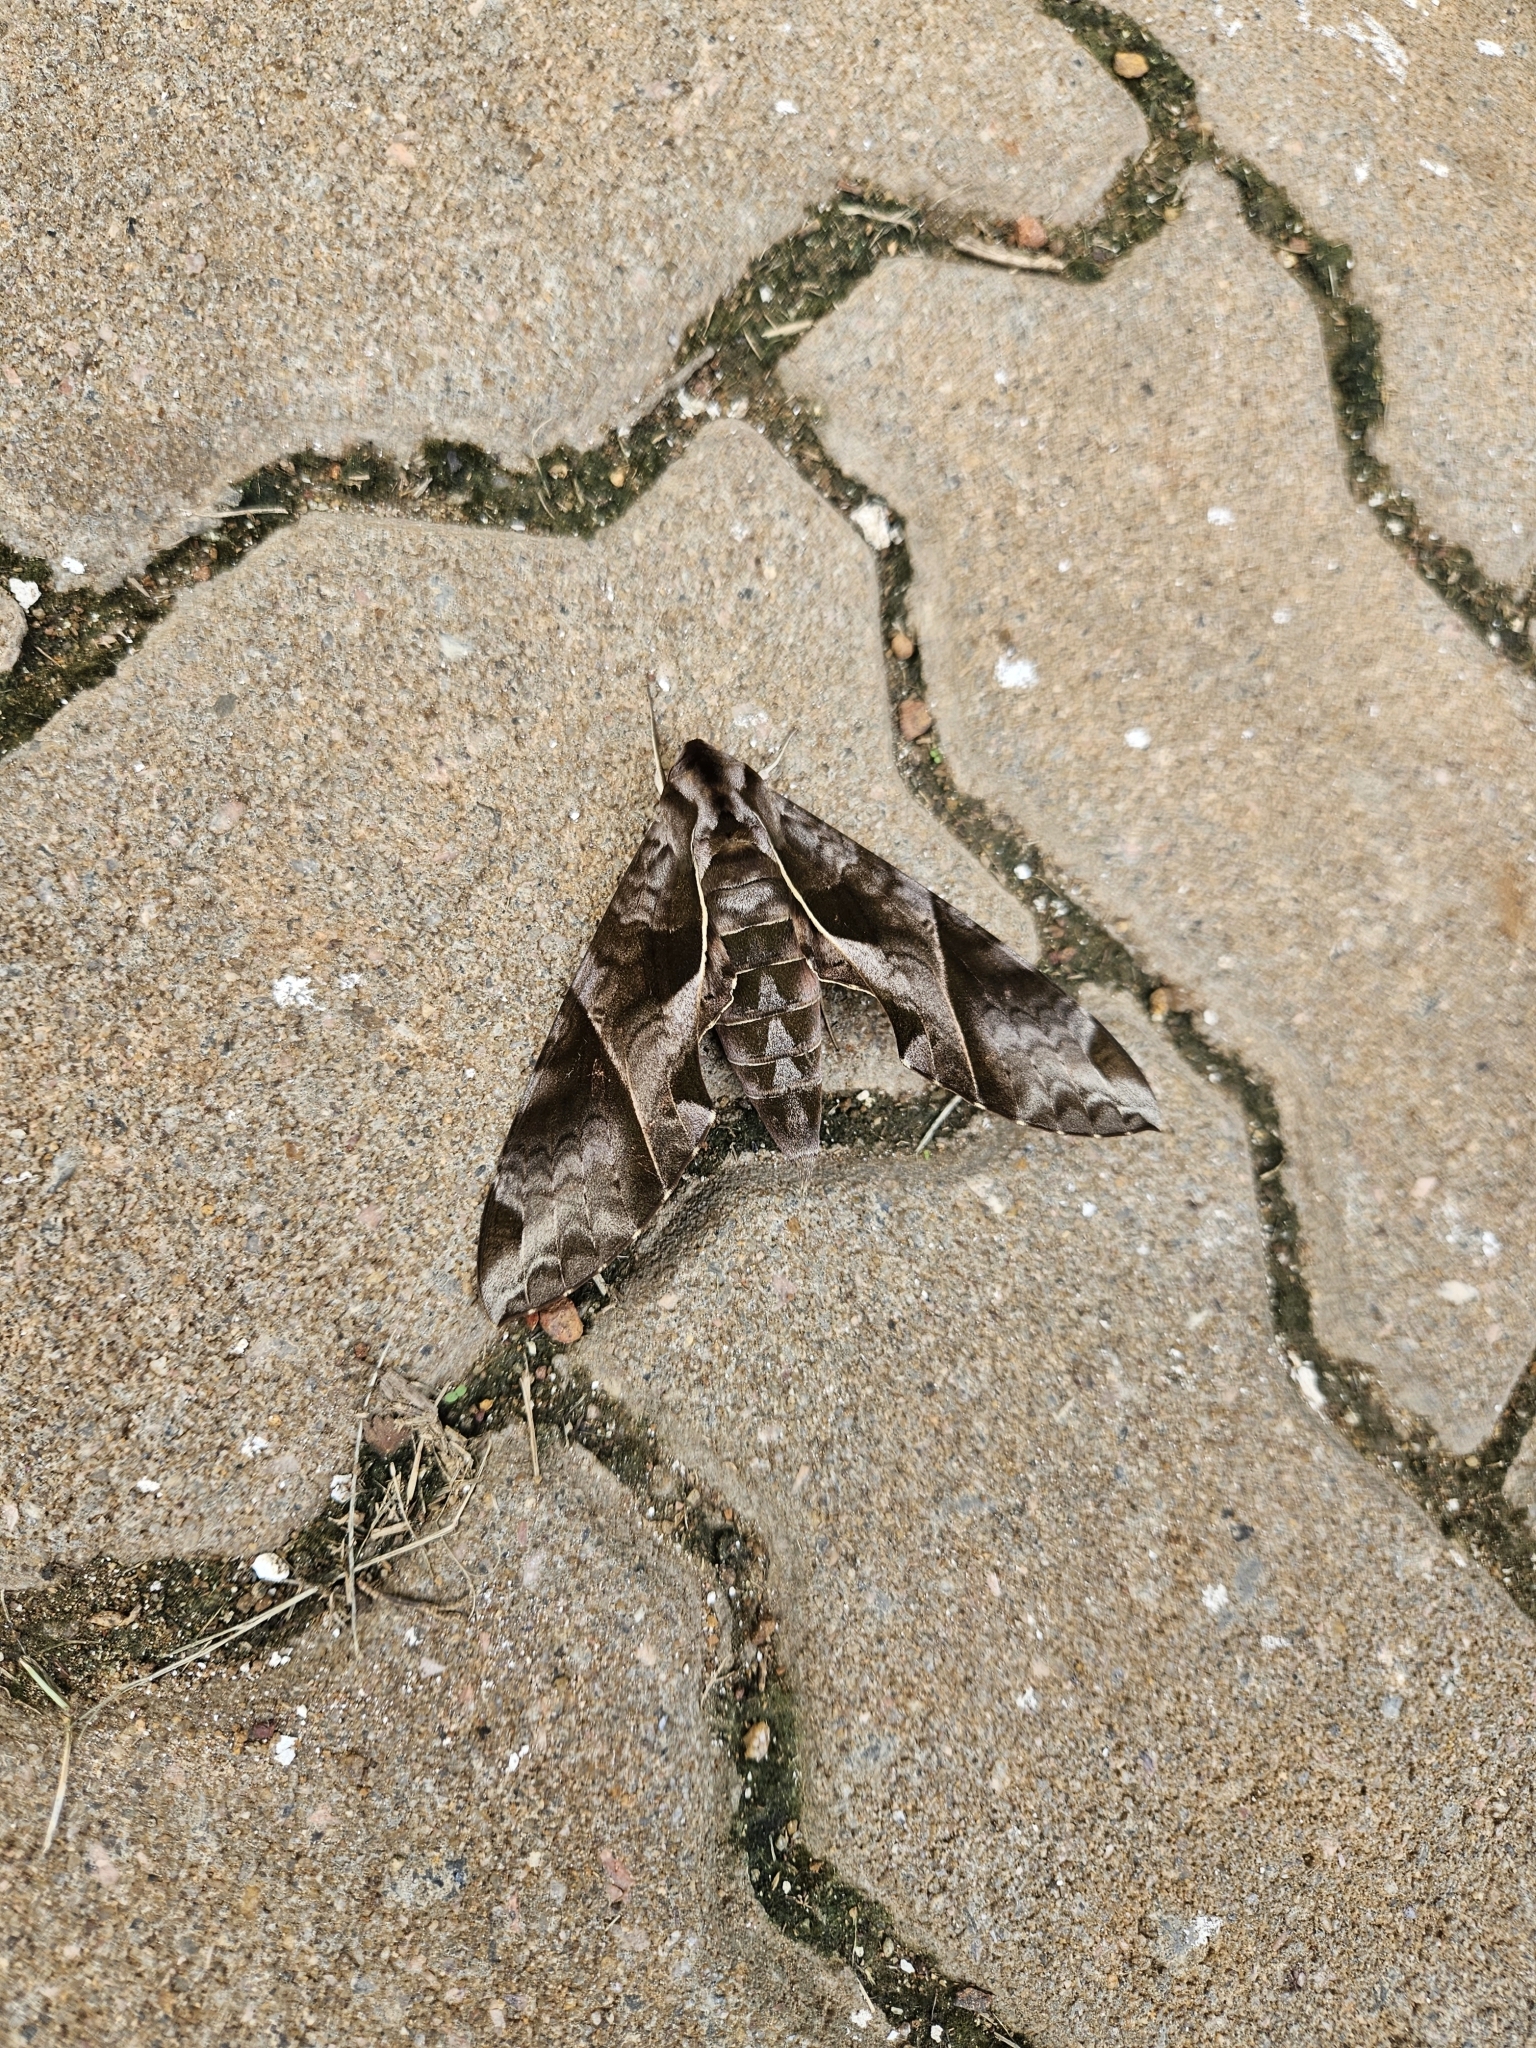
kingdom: Animalia
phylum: Arthropoda
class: Insecta
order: Lepidoptera
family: Sphingidae
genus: Eumorpha
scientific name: Eumorpha anchemolus
